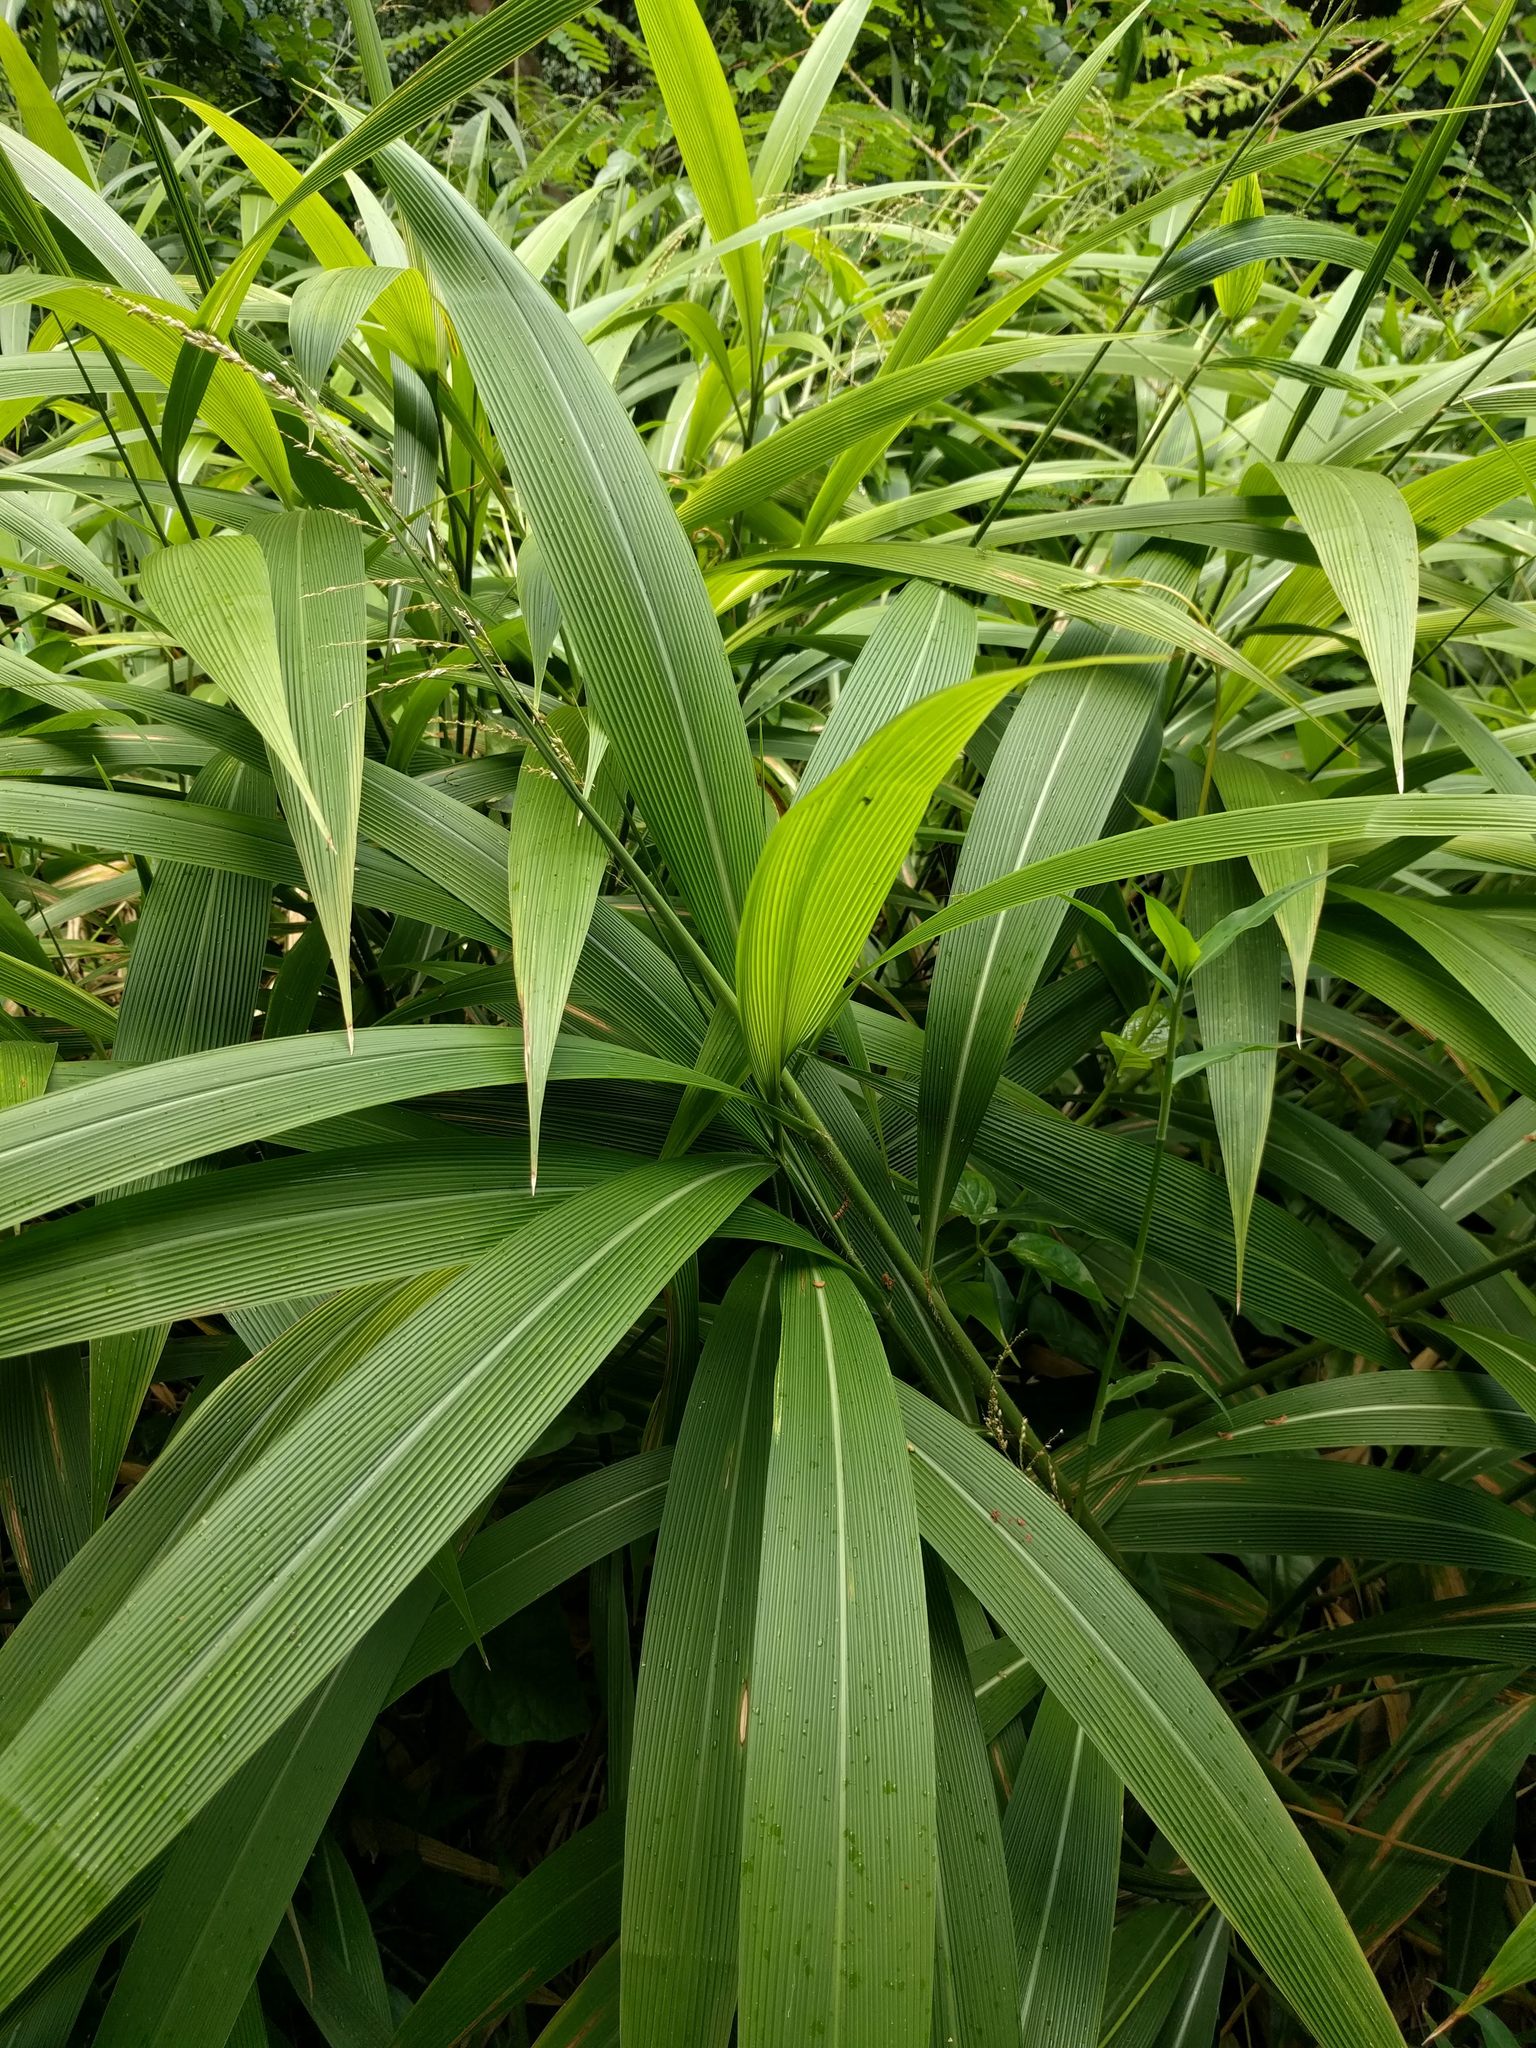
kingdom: Plantae
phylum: Tracheophyta
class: Liliopsida
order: Poales
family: Poaceae
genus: Setaria
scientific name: Setaria palmifolia
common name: Broadleaved bristlegrass
